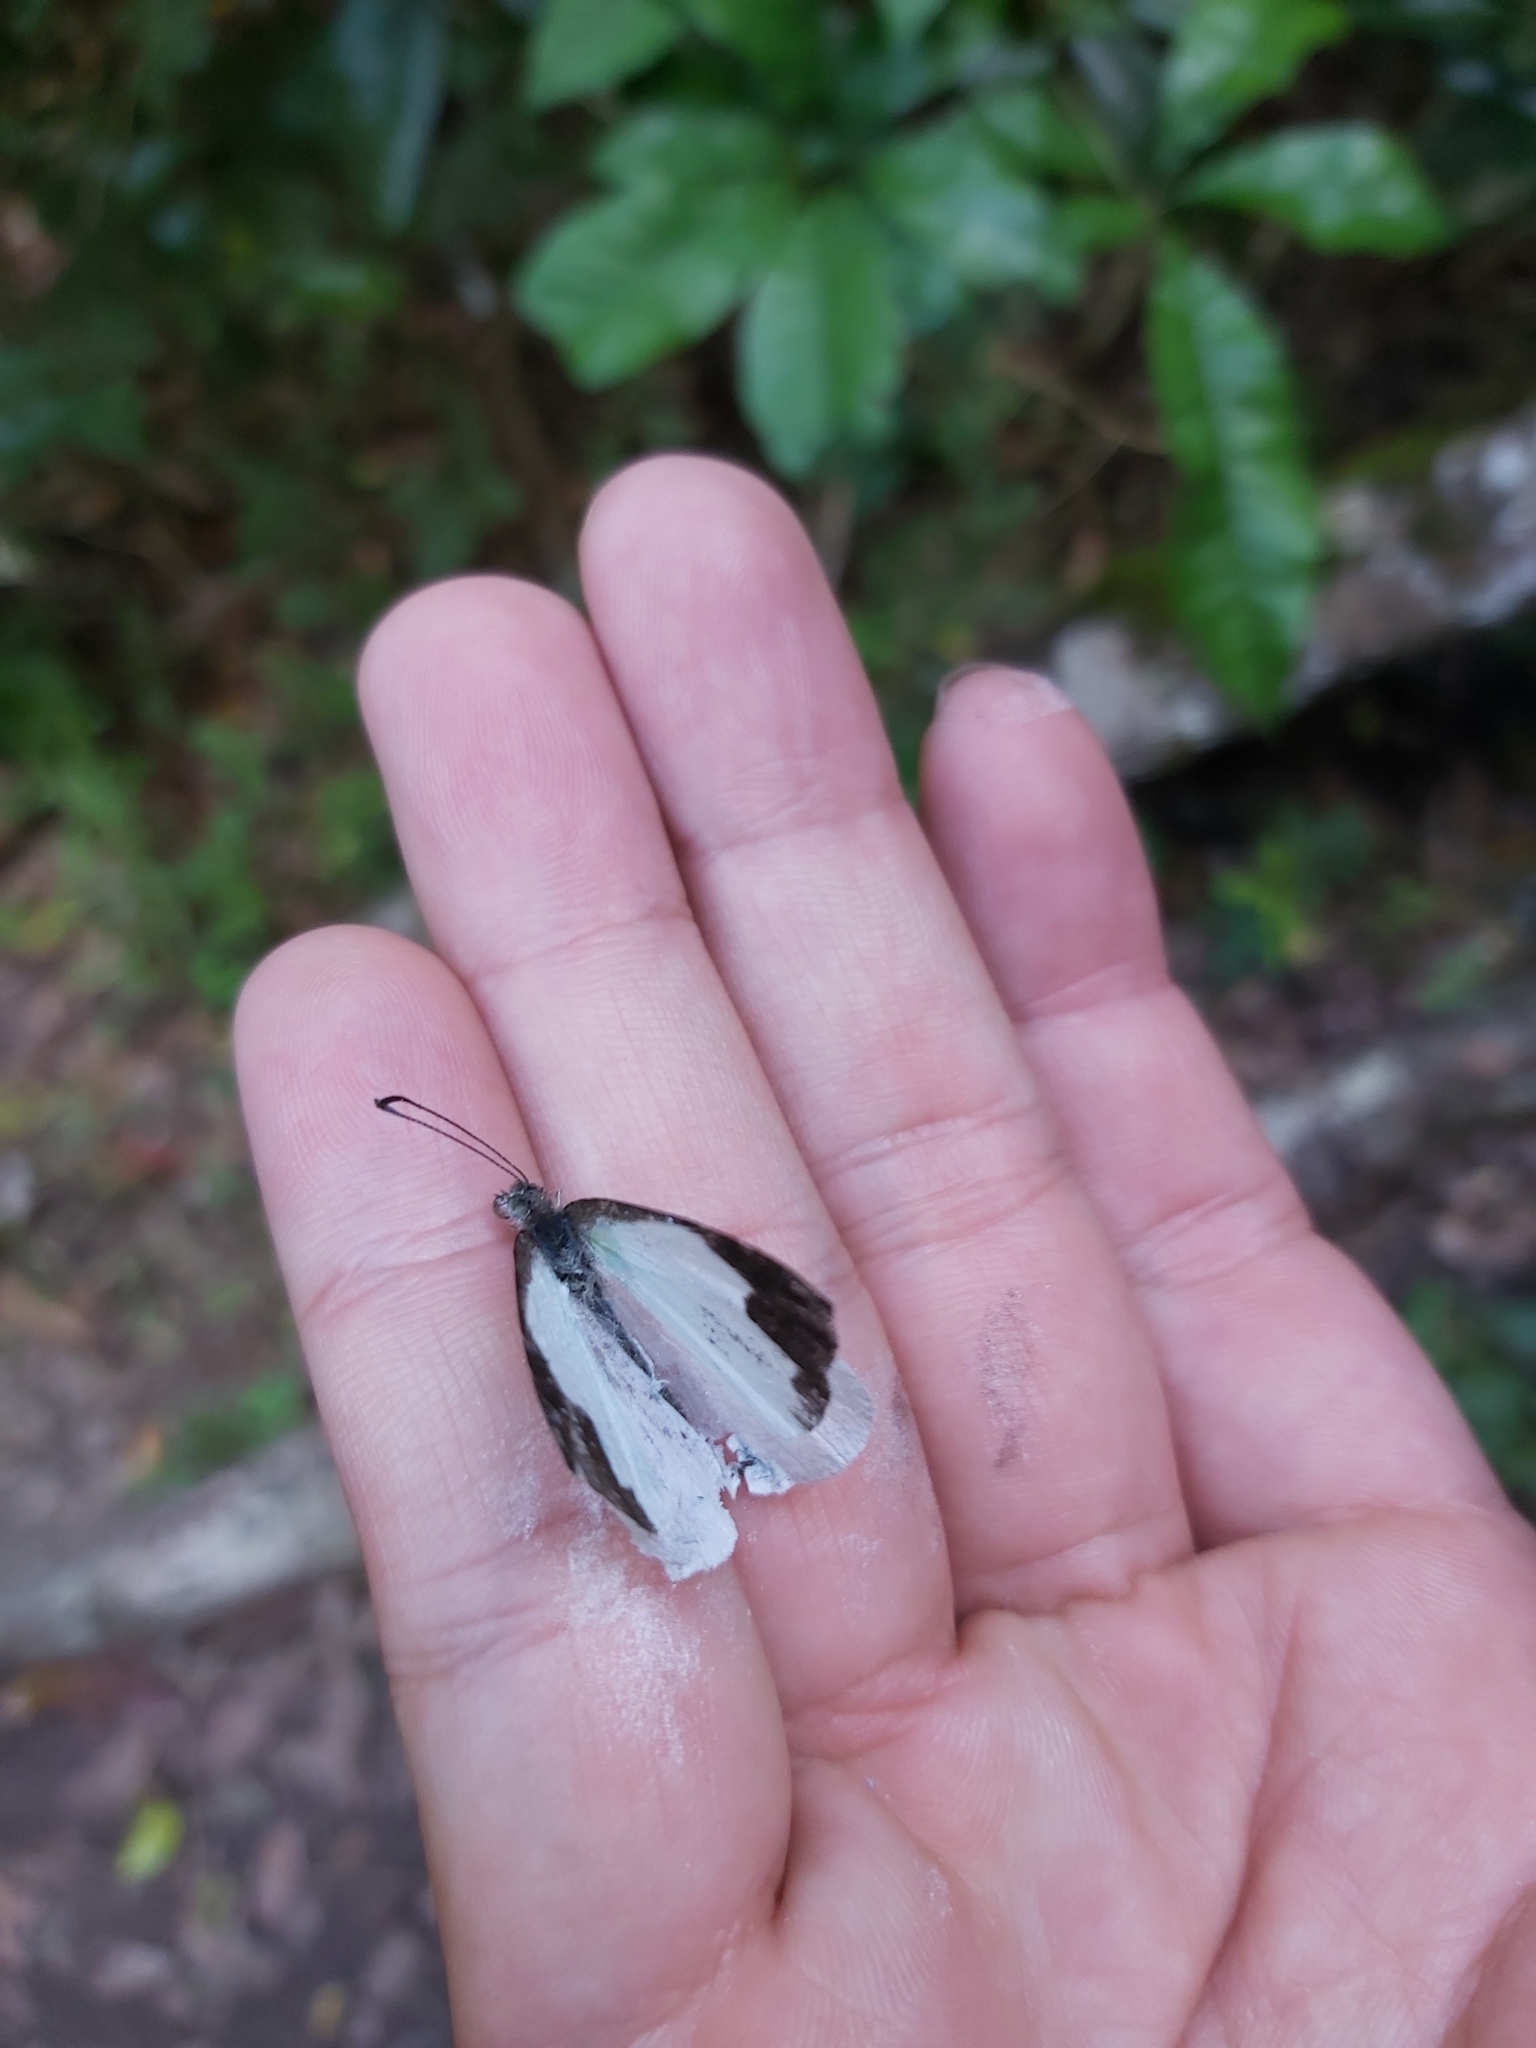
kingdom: Animalia
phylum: Arthropoda
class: Insecta
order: Lepidoptera
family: Pieridae
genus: Elodina
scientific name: Elodina queenslandica
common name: Glistening pearl-white
